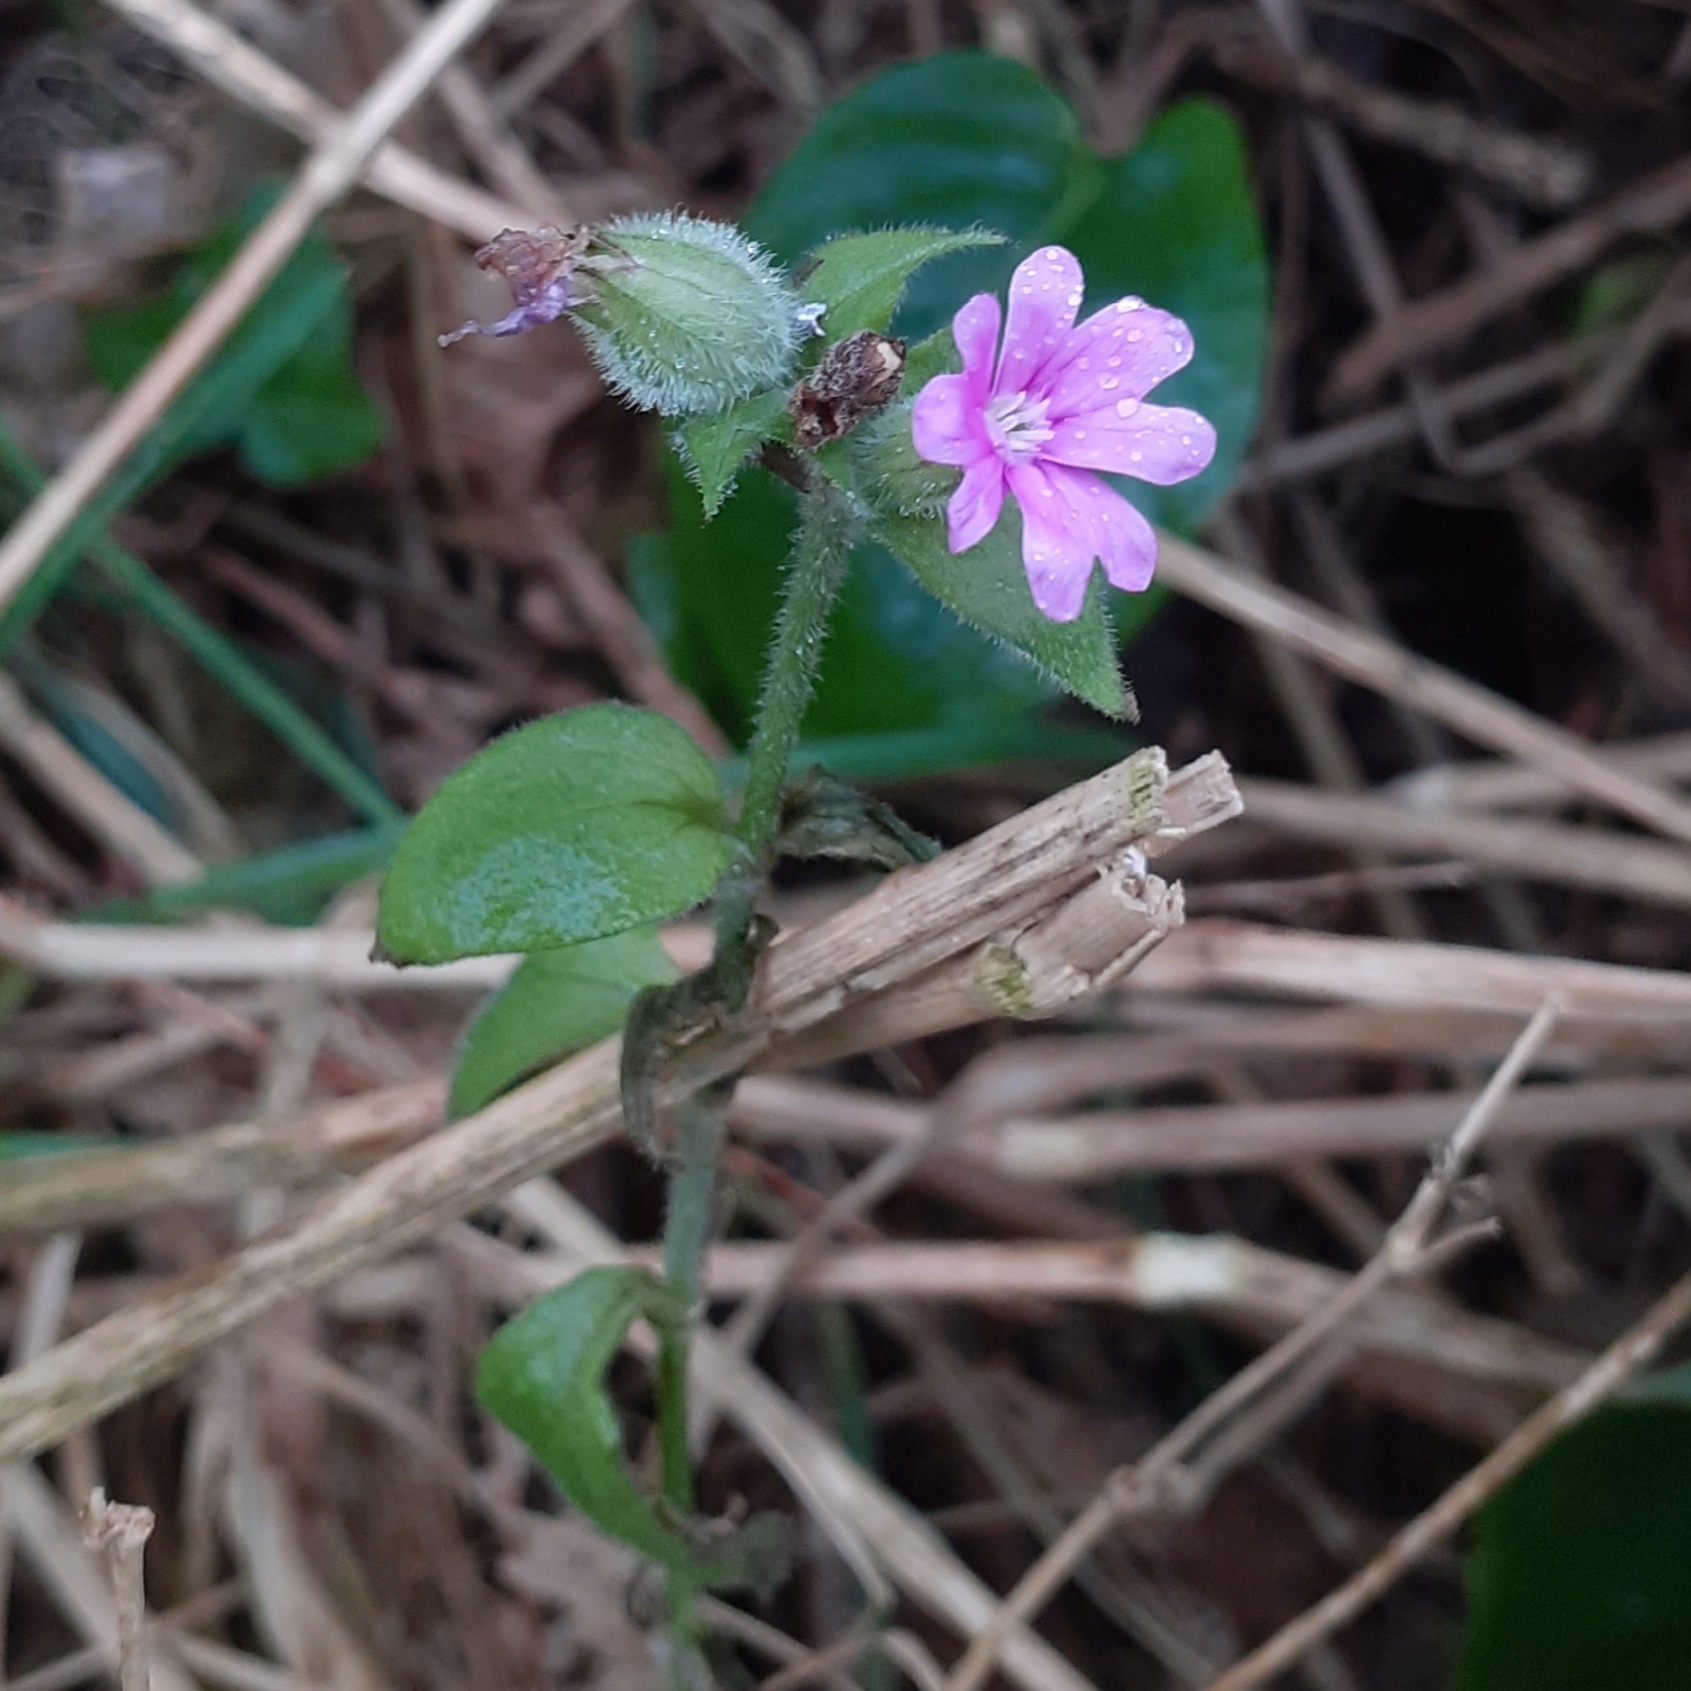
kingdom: Plantae
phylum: Tracheophyta
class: Magnoliopsida
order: Caryophyllales
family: Caryophyllaceae
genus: Silene
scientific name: Silene dioica
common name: Red campion
